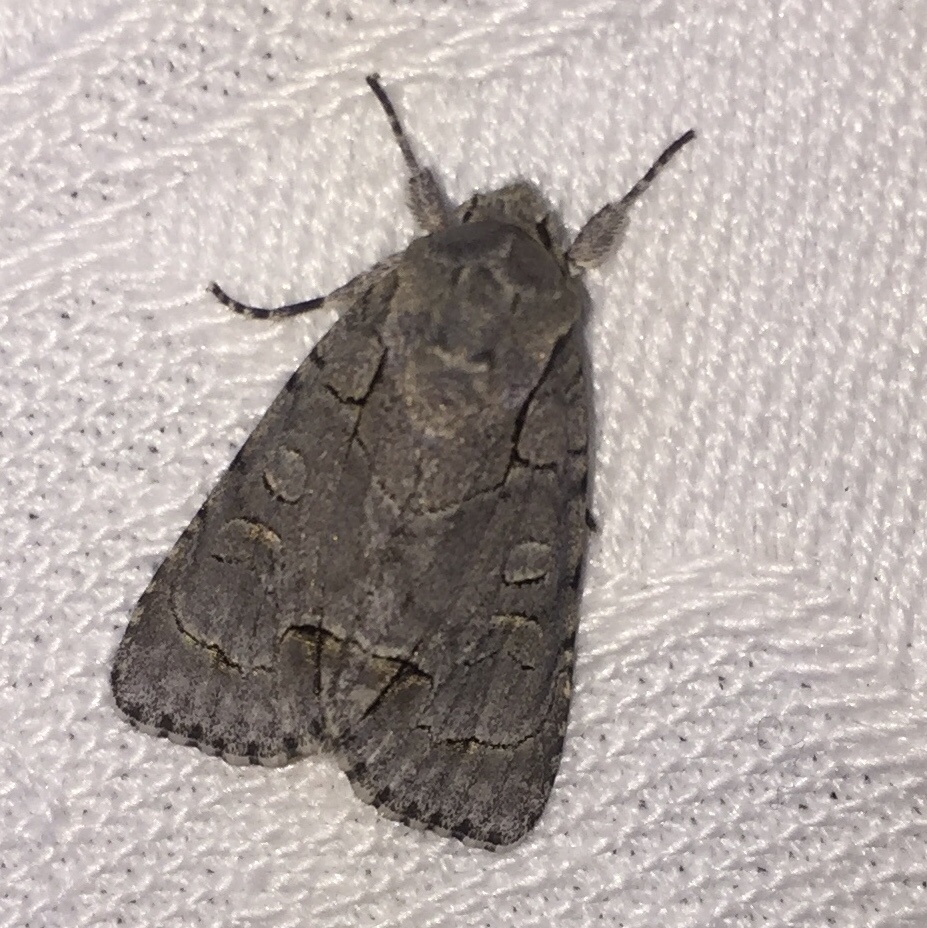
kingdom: Animalia
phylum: Arthropoda
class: Insecta
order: Lepidoptera
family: Noctuidae
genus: Acronicta
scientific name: Acronicta radcliffei
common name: Radcliffe's dagger
